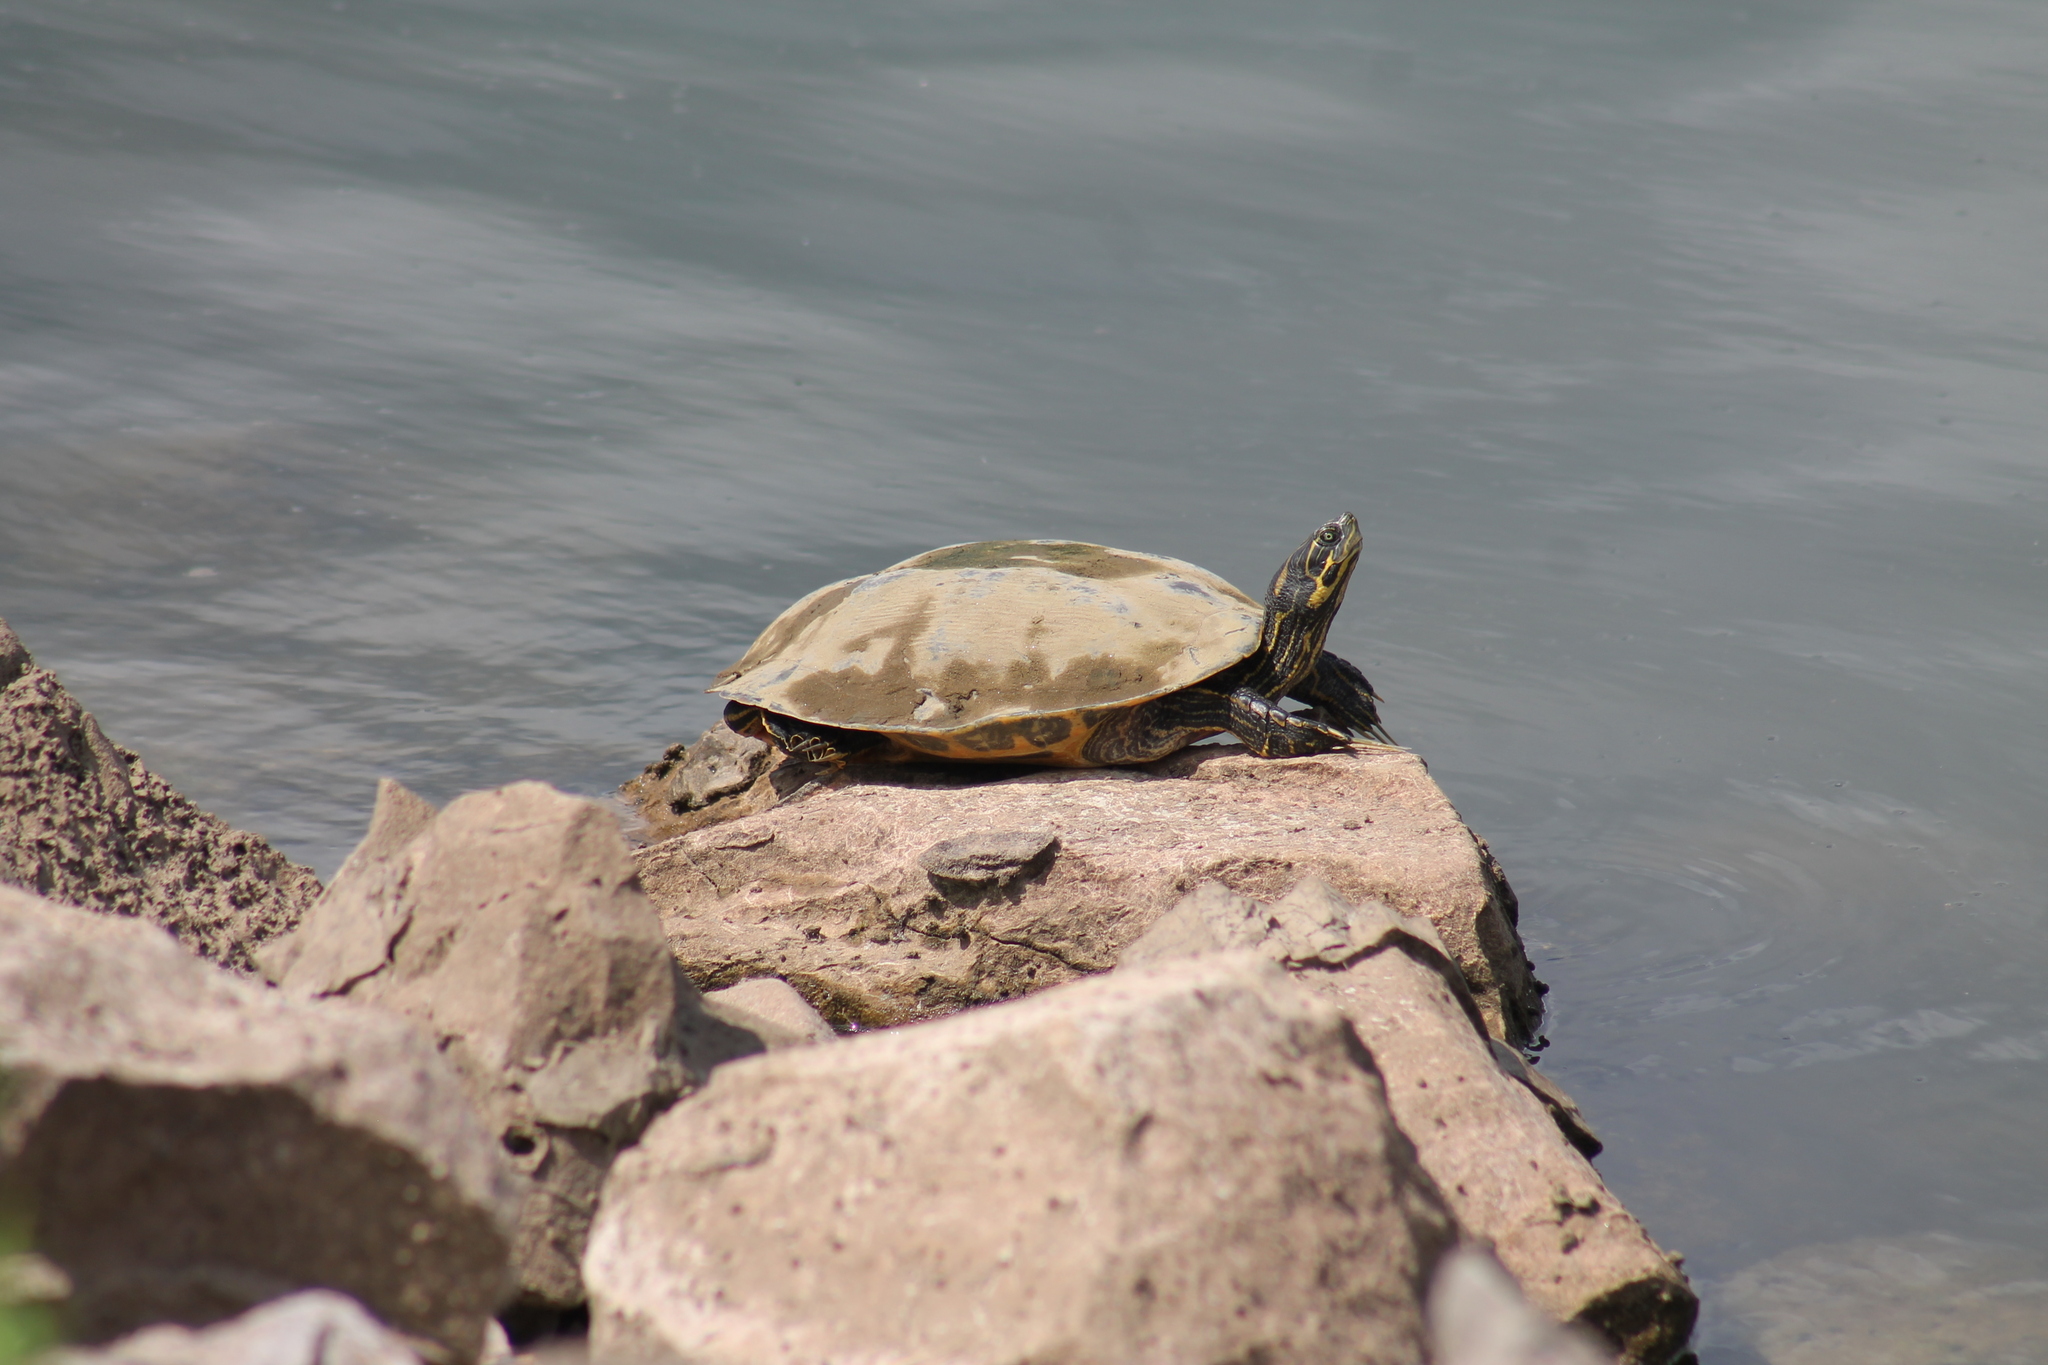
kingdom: Animalia
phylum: Chordata
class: Testudines
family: Emydidae
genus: Pseudemys
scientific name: Pseudemys concinna
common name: Eastern river cooter
